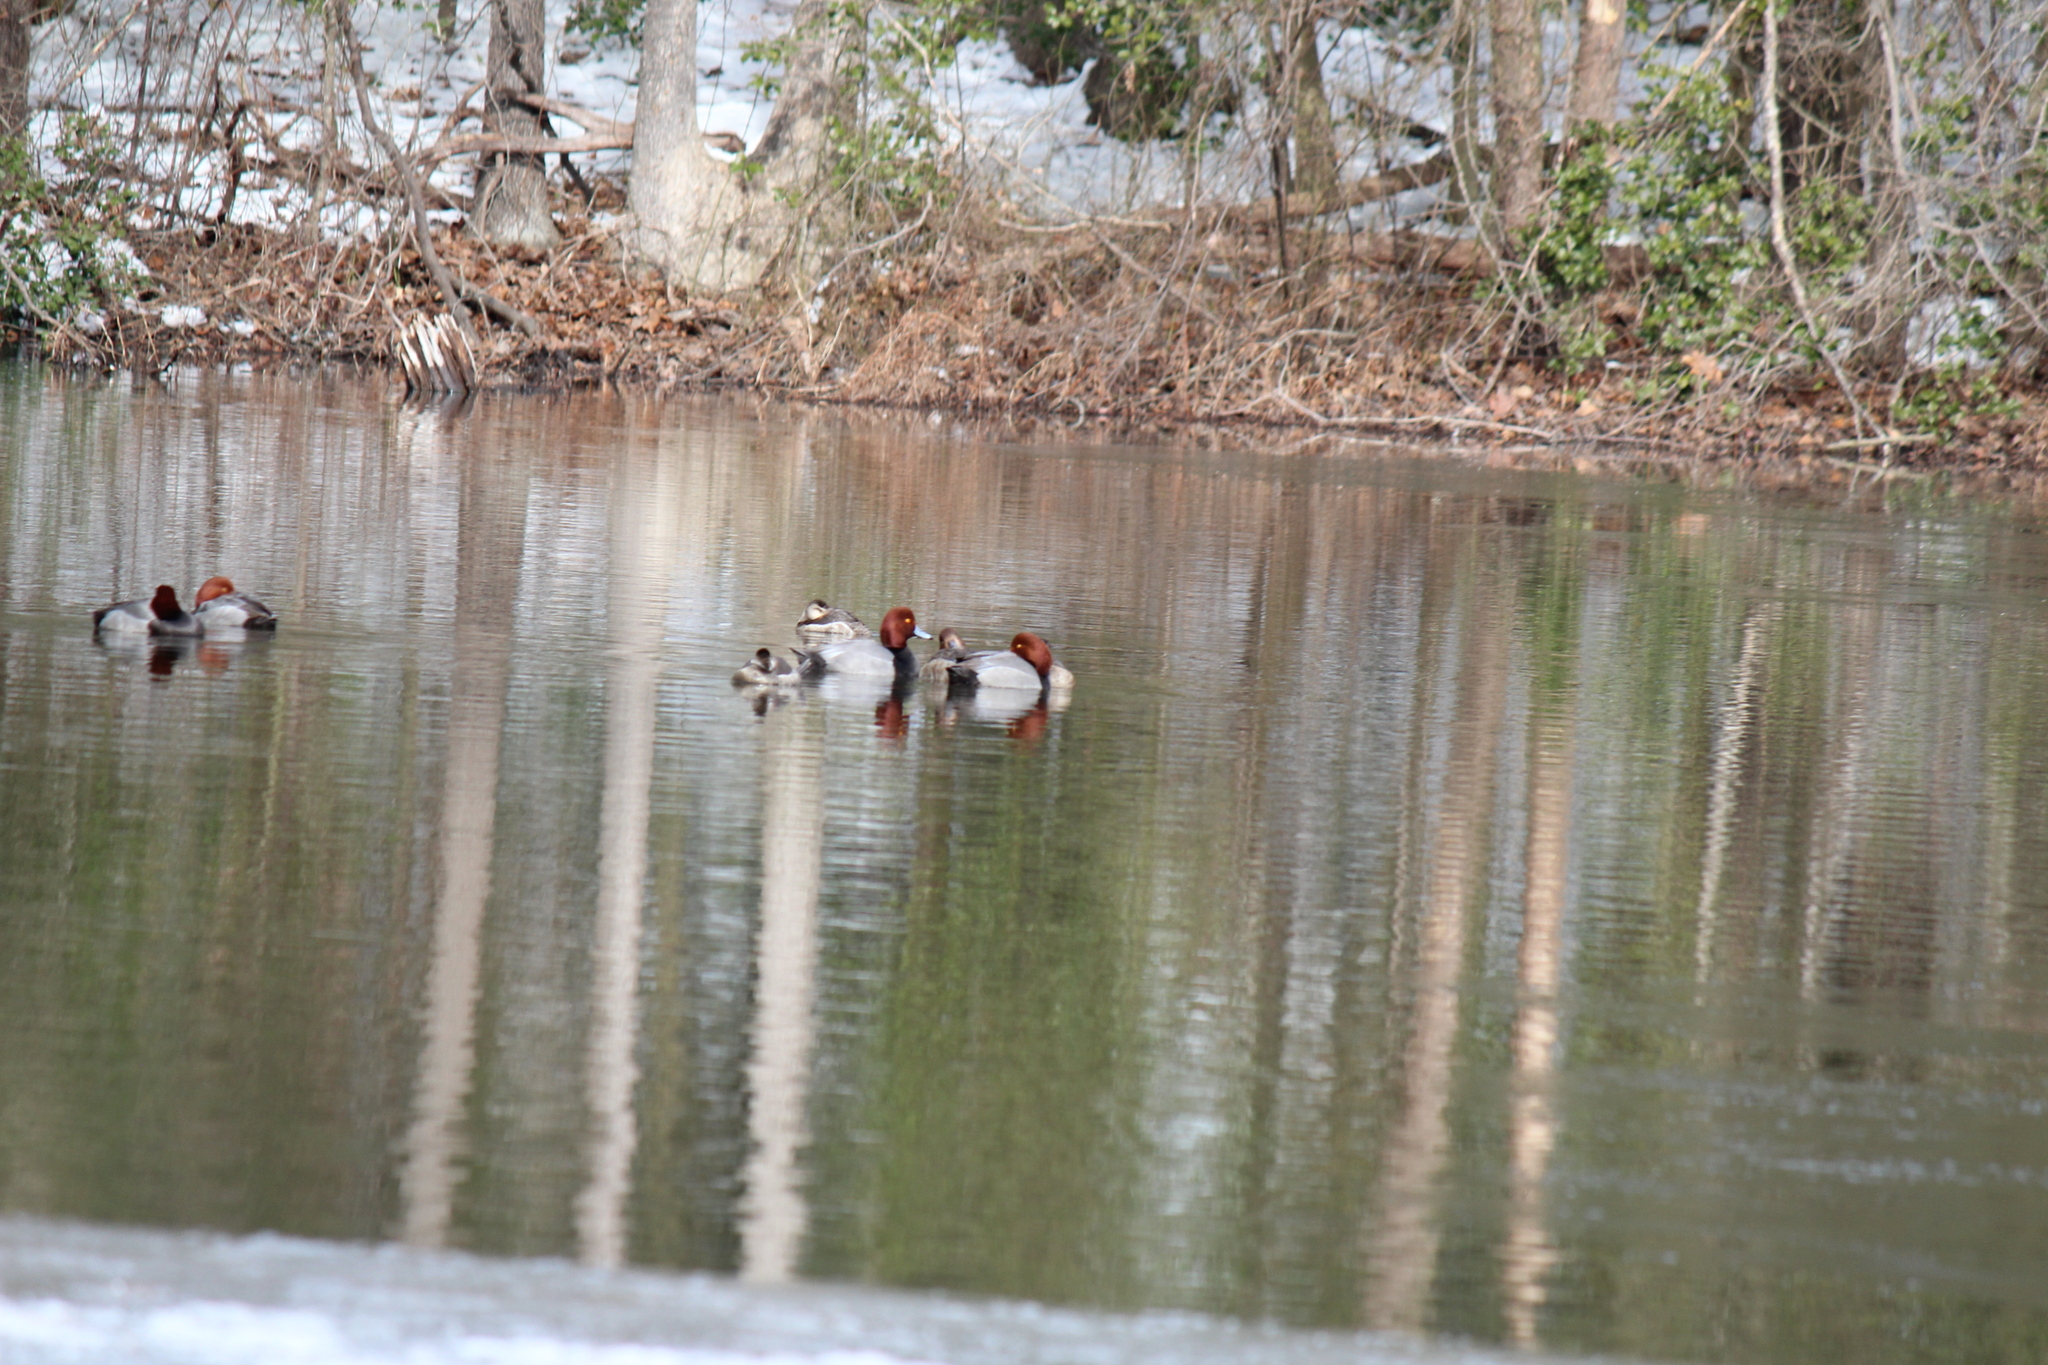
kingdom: Animalia
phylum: Chordata
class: Aves
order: Anseriformes
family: Anatidae
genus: Aythya
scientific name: Aythya americana
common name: Redhead
